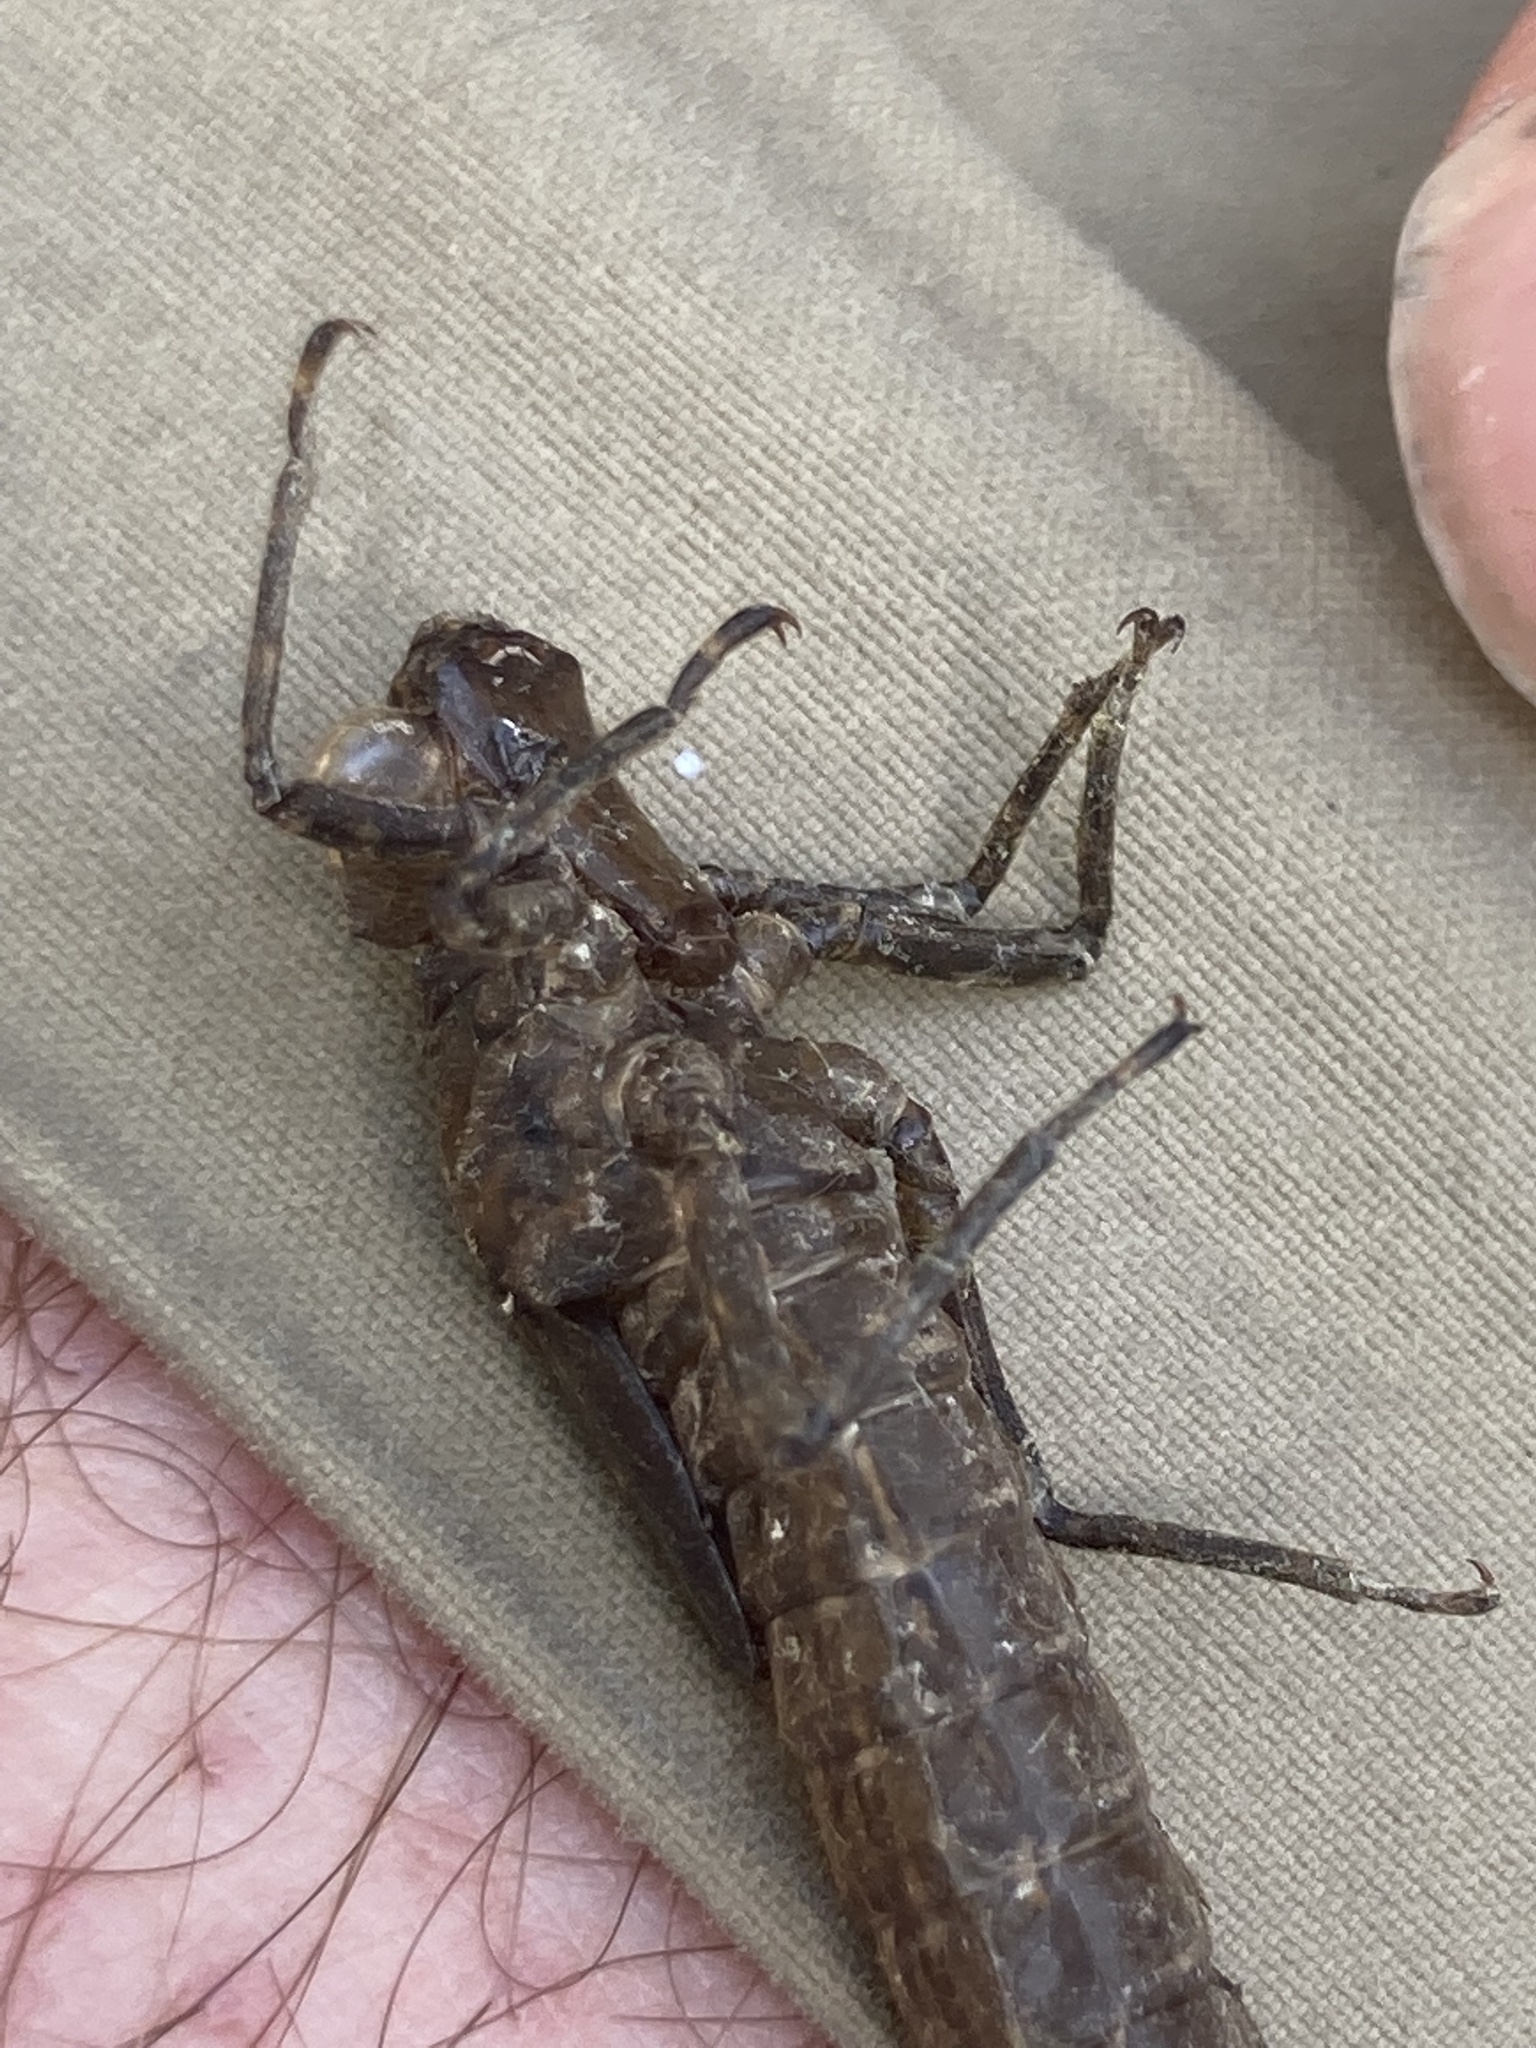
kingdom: Animalia
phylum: Arthropoda
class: Insecta
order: Odonata
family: Aeshnidae
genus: Boyeria
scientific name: Boyeria irene
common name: Western spectre
